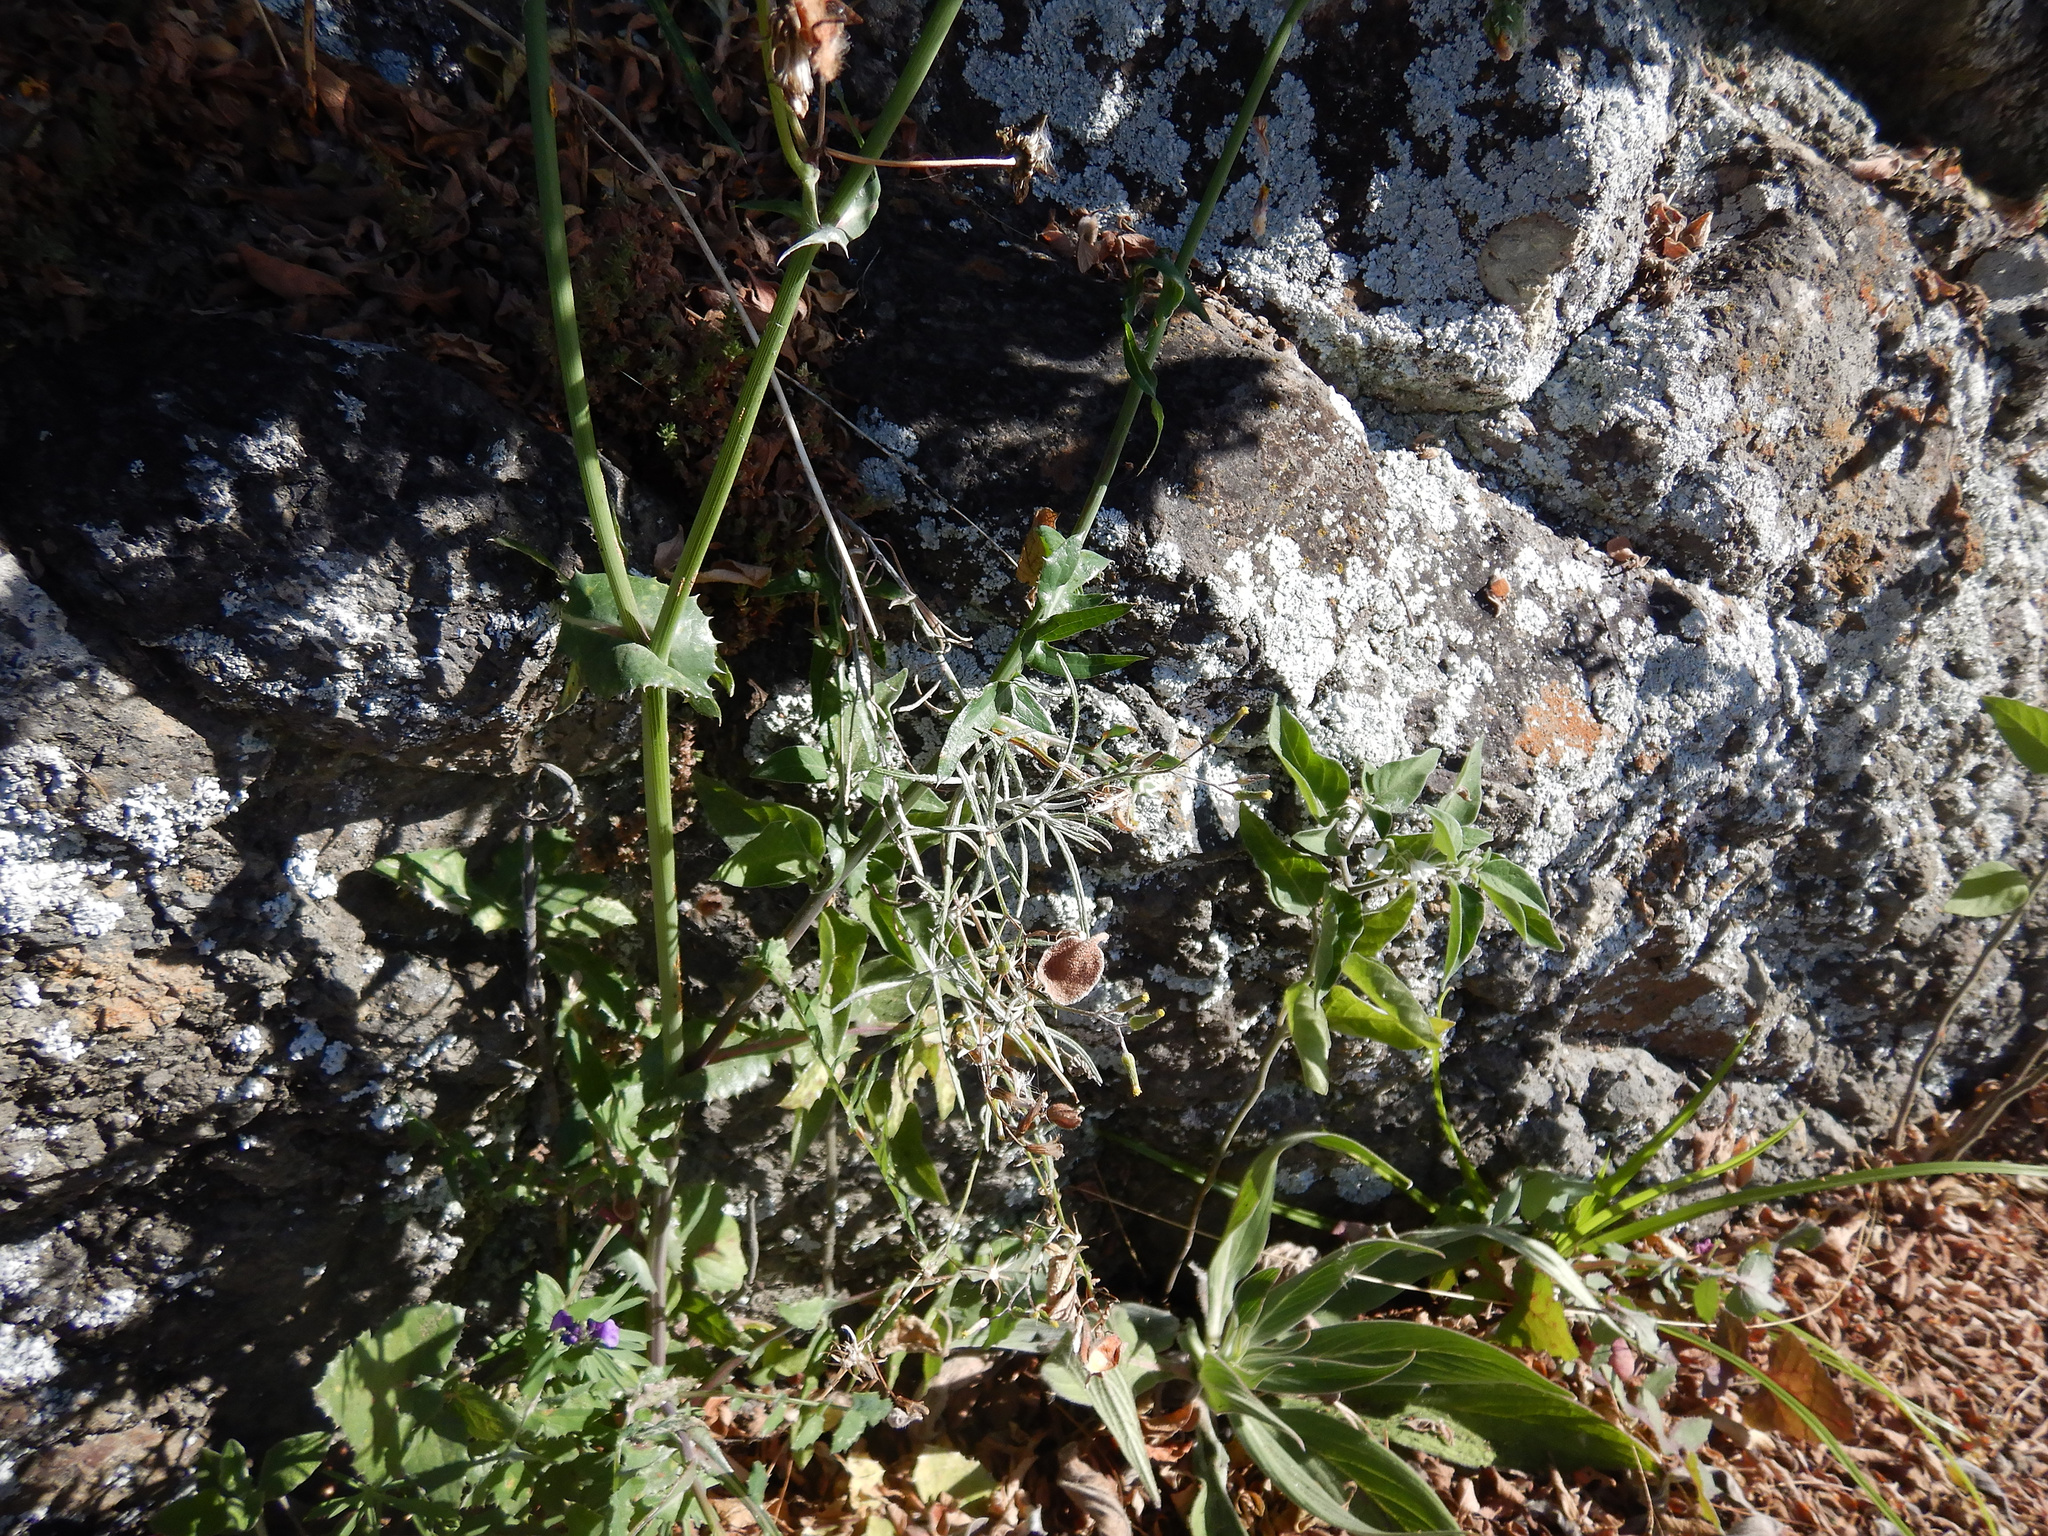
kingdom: Plantae
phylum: Tracheophyta
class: Magnoliopsida
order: Asterales
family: Asteraceae
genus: Senecio
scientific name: Senecio quadridentatus
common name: Cotton fireweed
